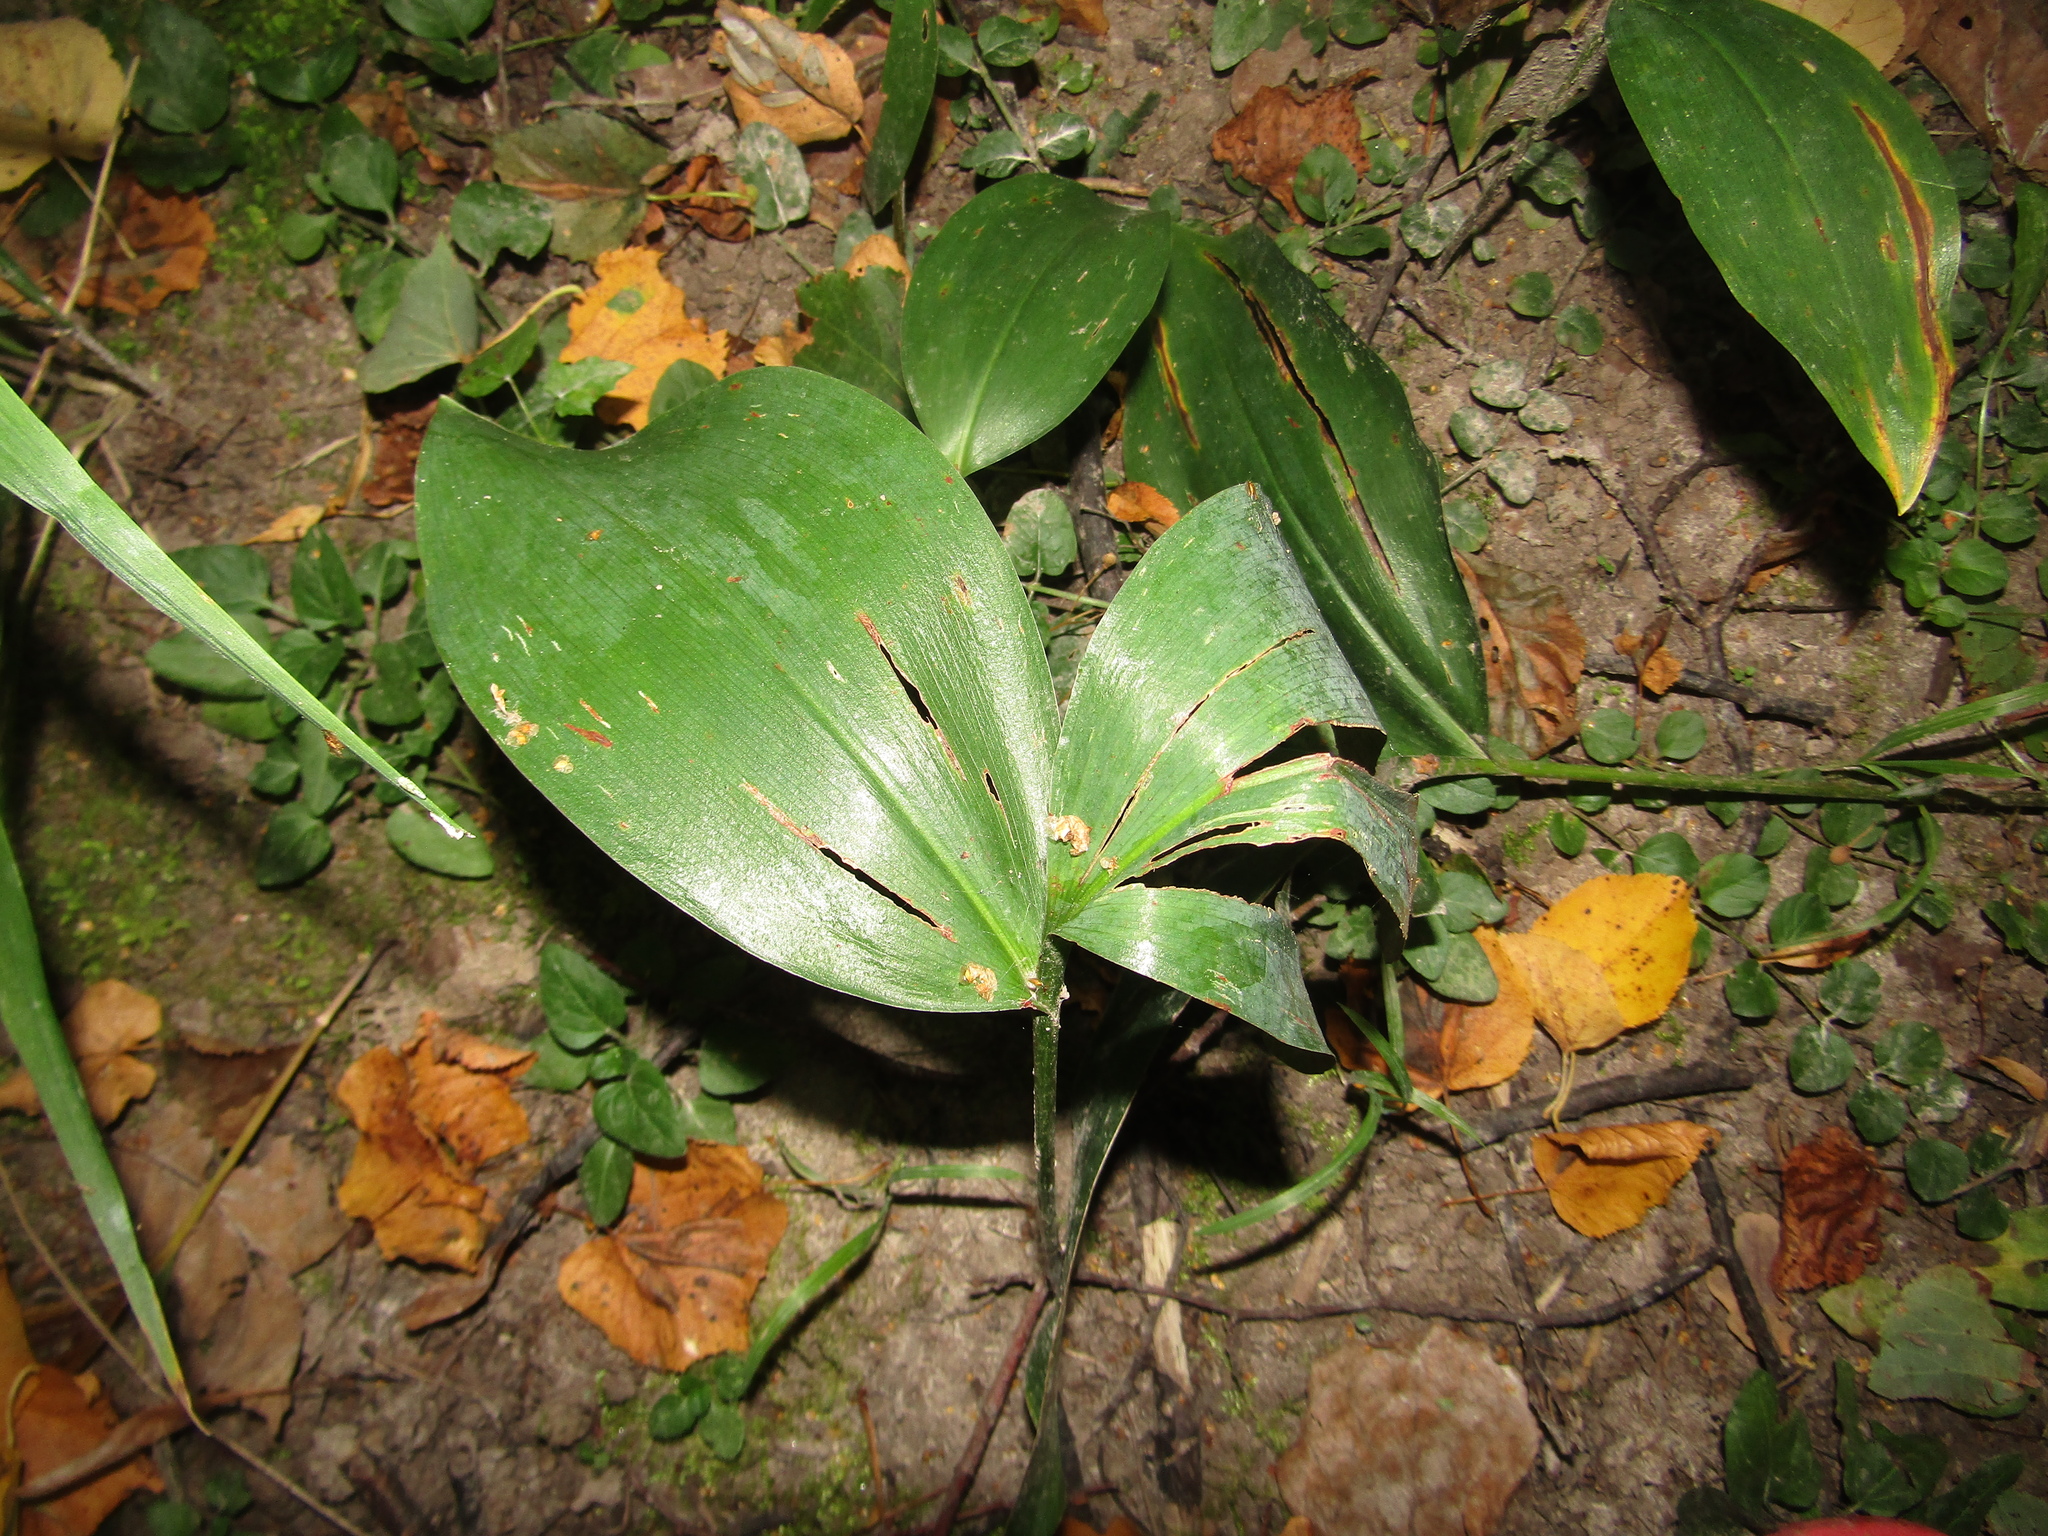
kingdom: Plantae
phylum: Tracheophyta
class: Liliopsida
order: Asparagales
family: Asparagaceae
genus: Convallaria
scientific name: Convallaria majalis
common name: Lily-of-the-valley
